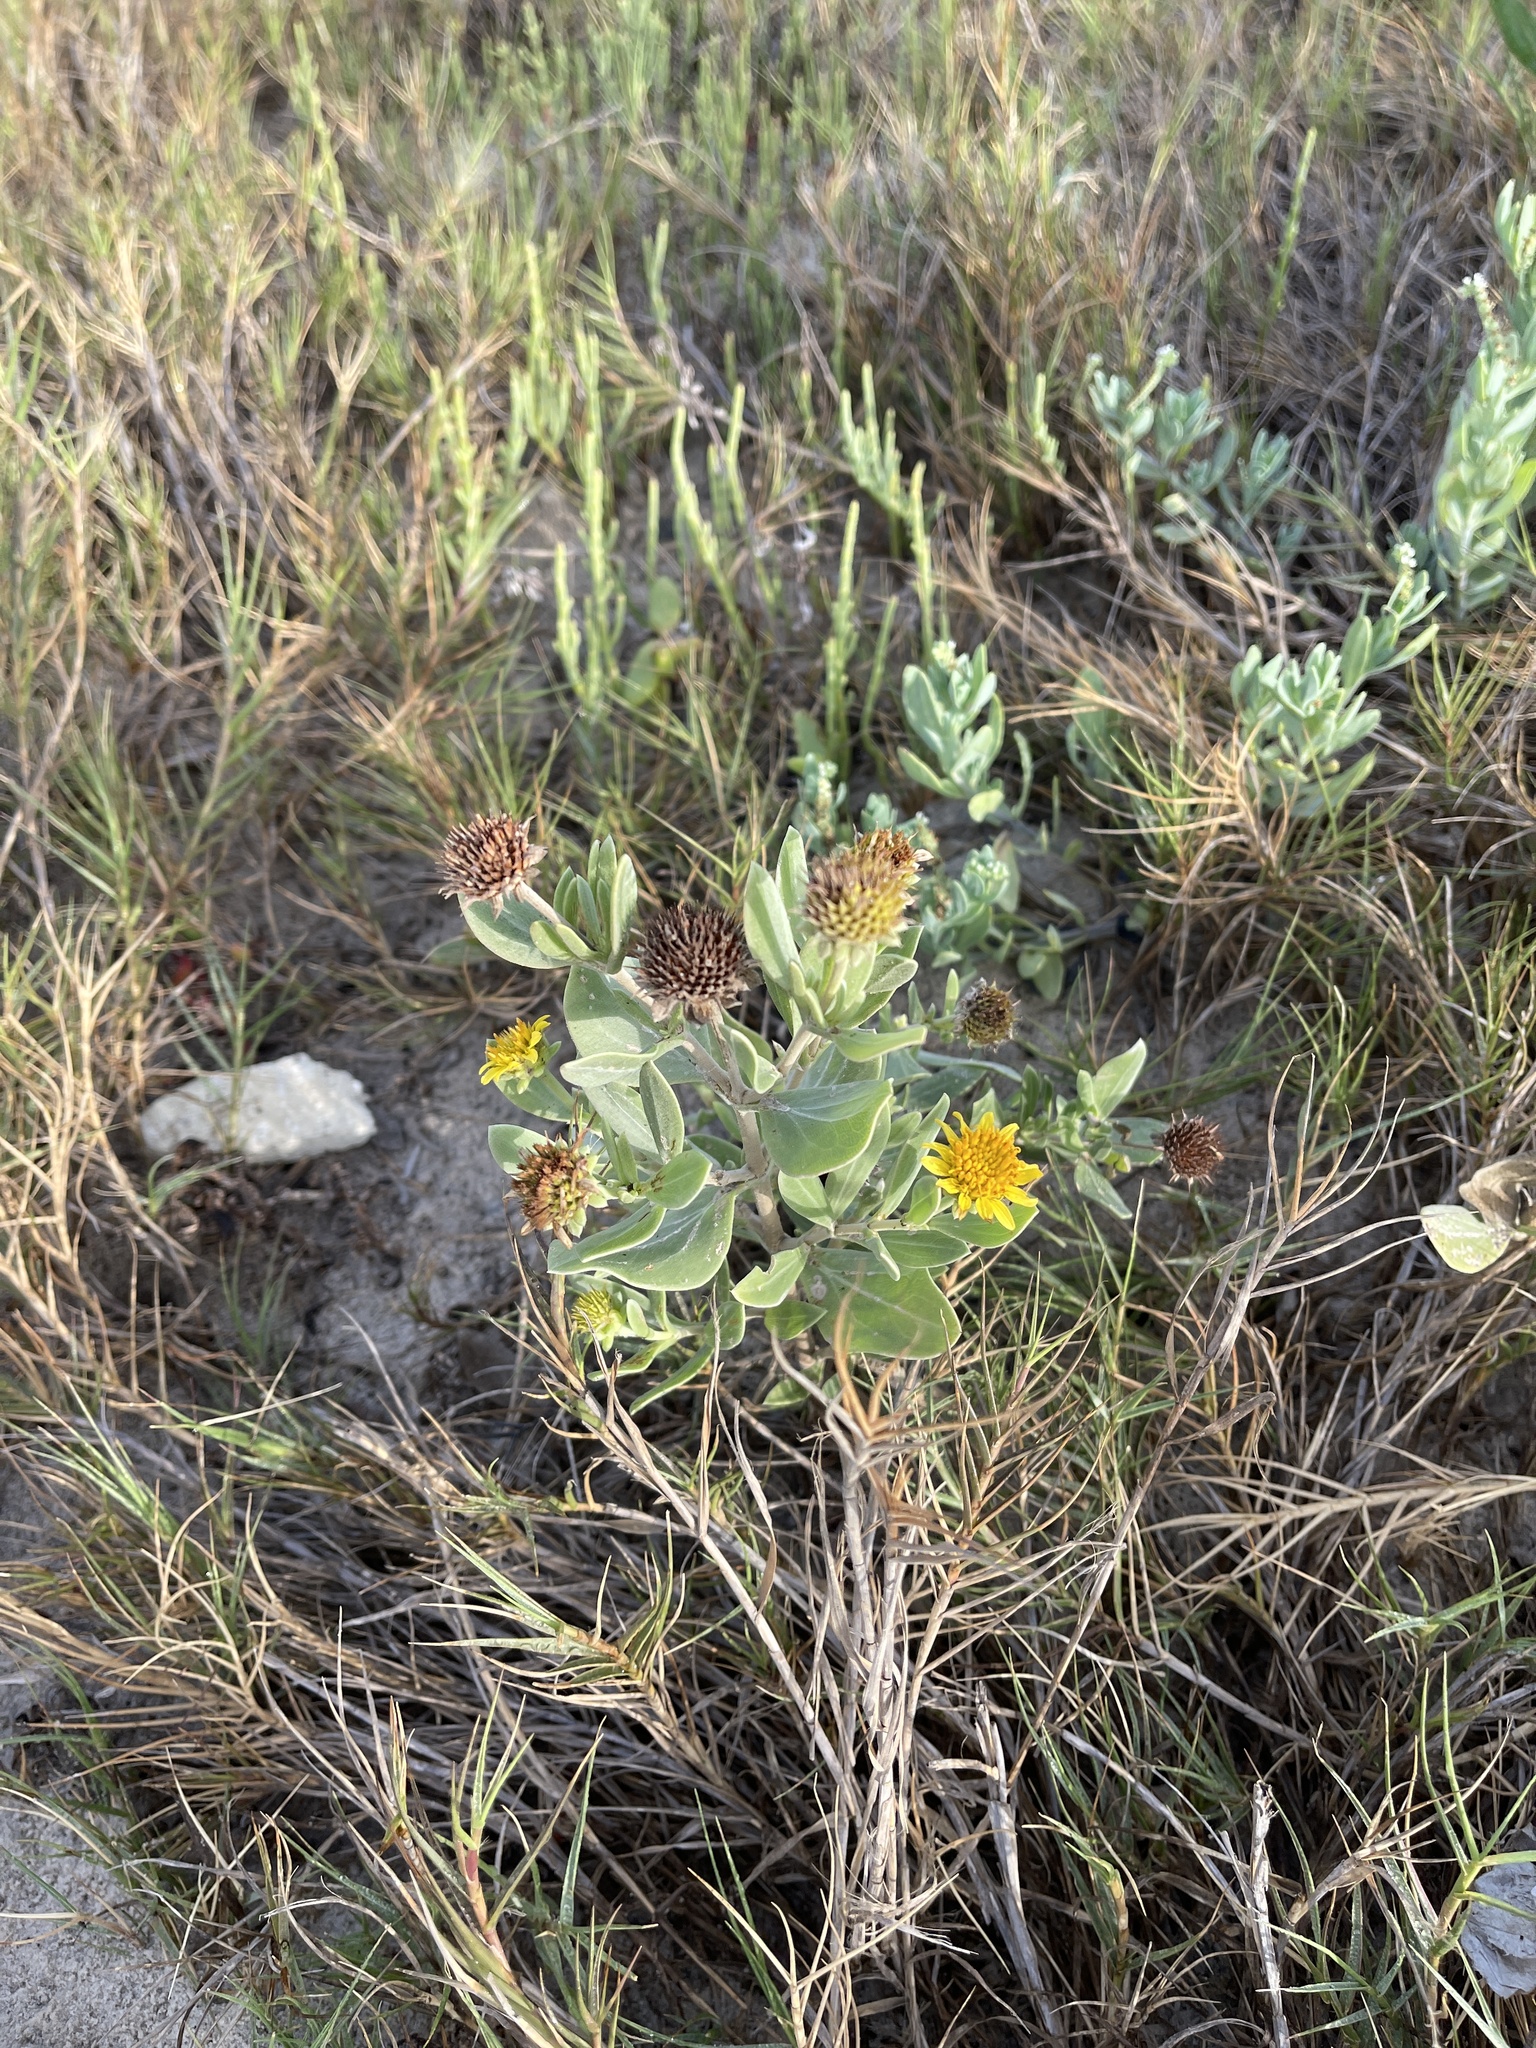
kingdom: Plantae
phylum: Tracheophyta
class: Magnoliopsida
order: Asterales
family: Asteraceae
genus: Borrichia
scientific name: Borrichia frutescens
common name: Sea oxeye
